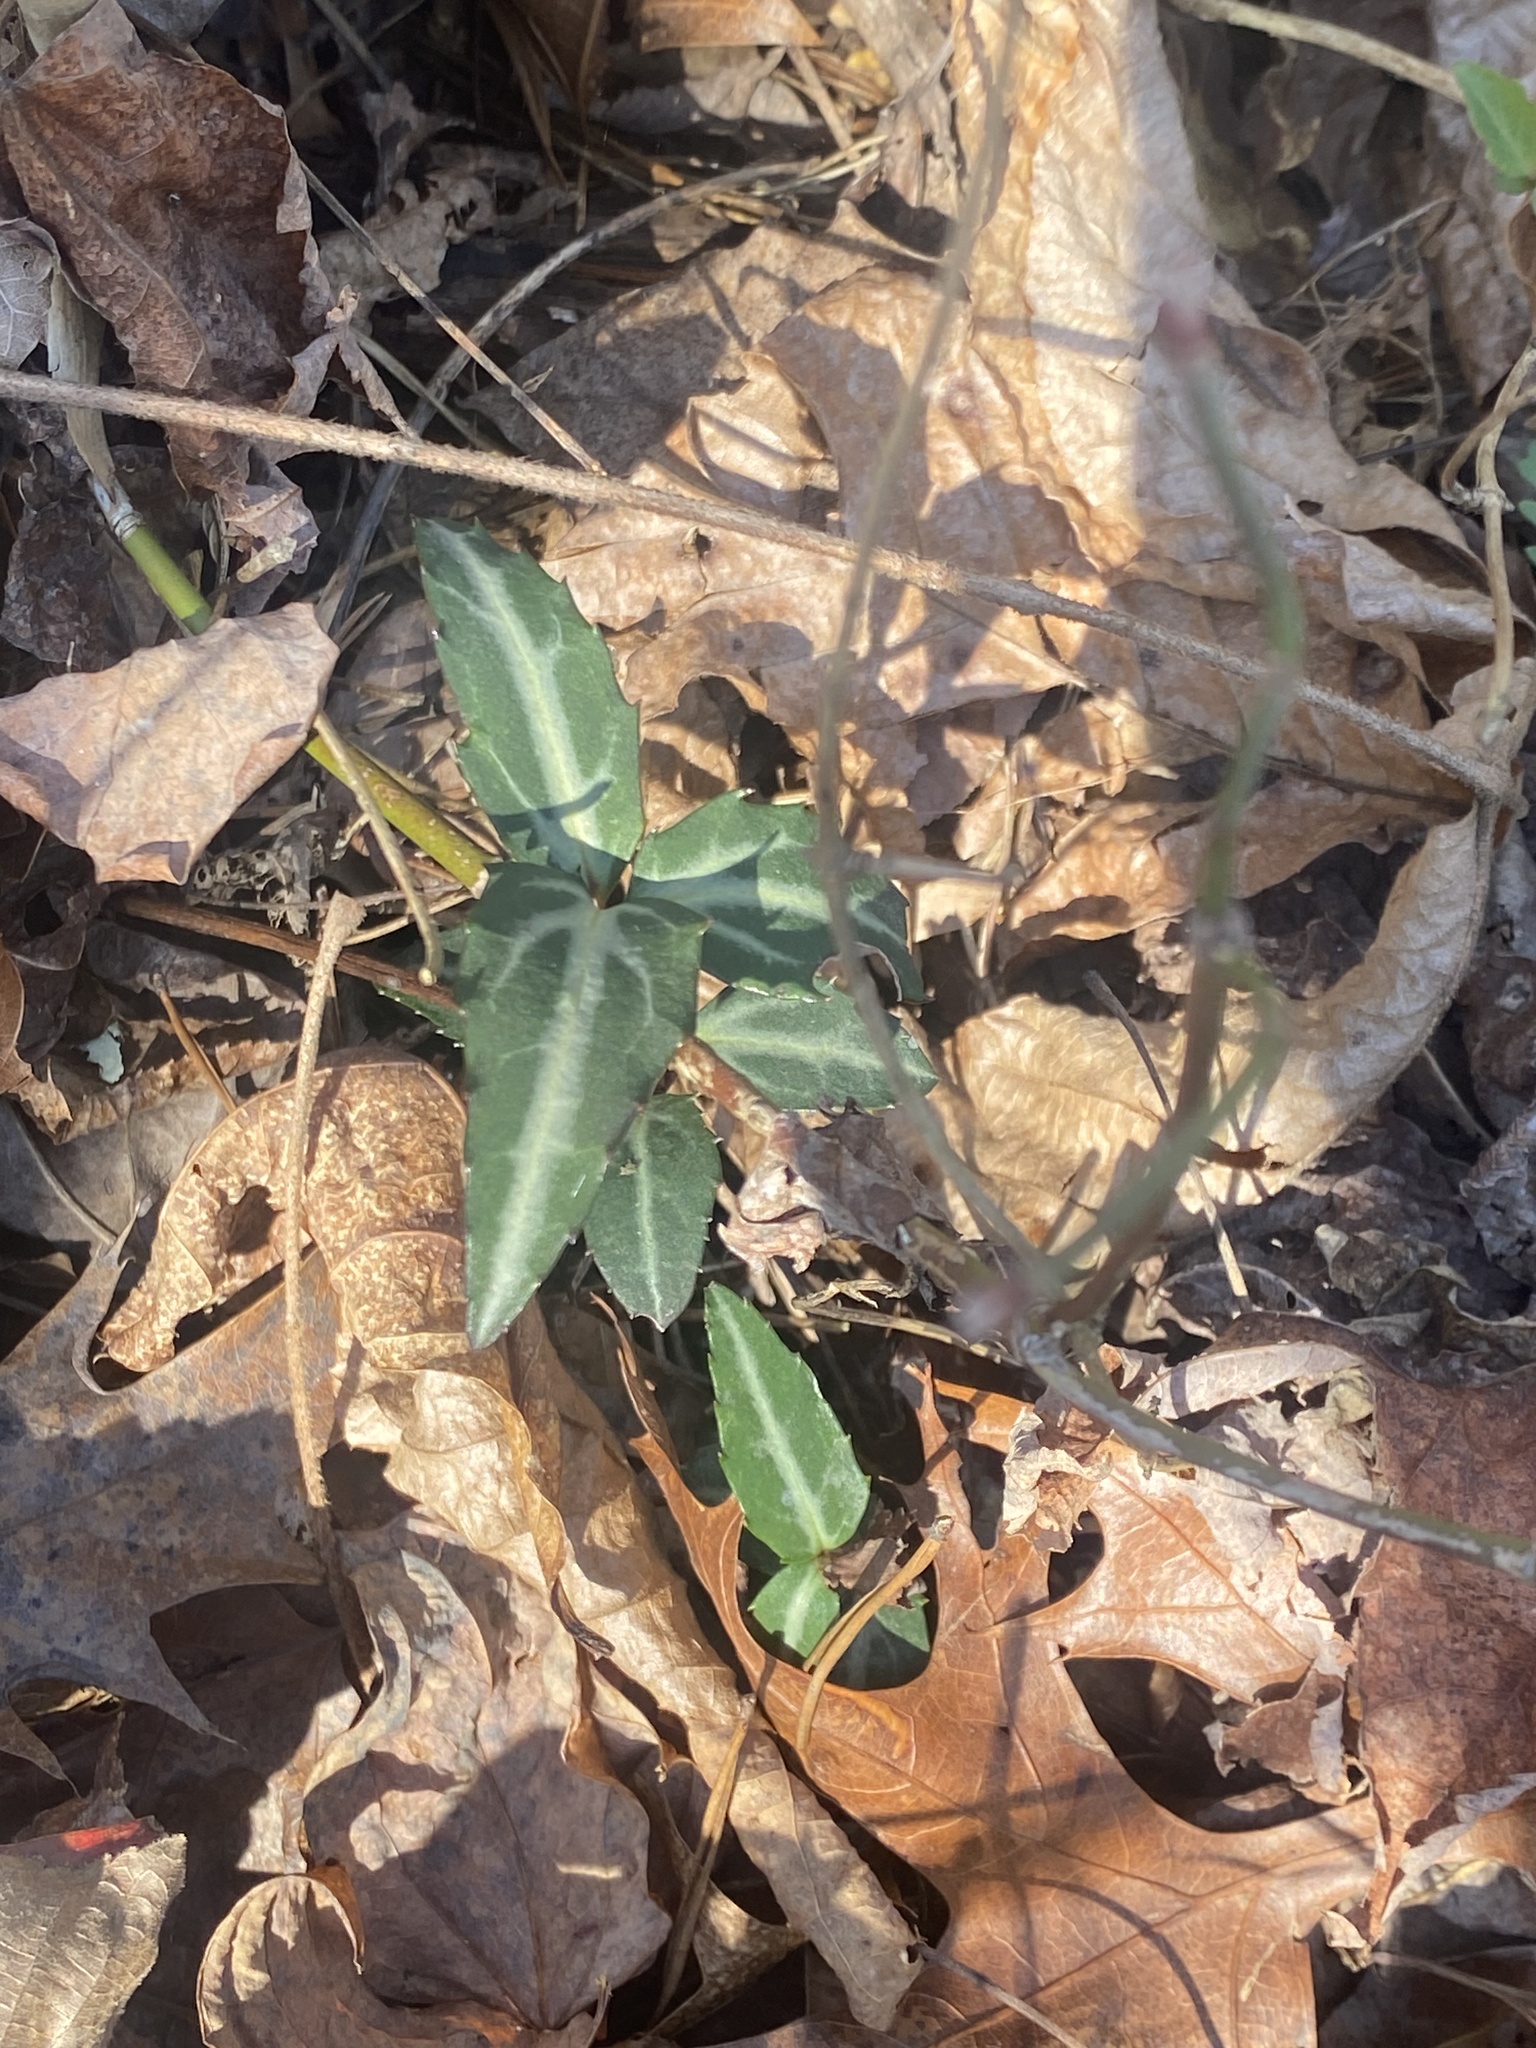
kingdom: Plantae
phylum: Tracheophyta
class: Magnoliopsida
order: Ericales
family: Ericaceae
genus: Chimaphila
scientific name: Chimaphila maculata
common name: Spotted pipsissewa
